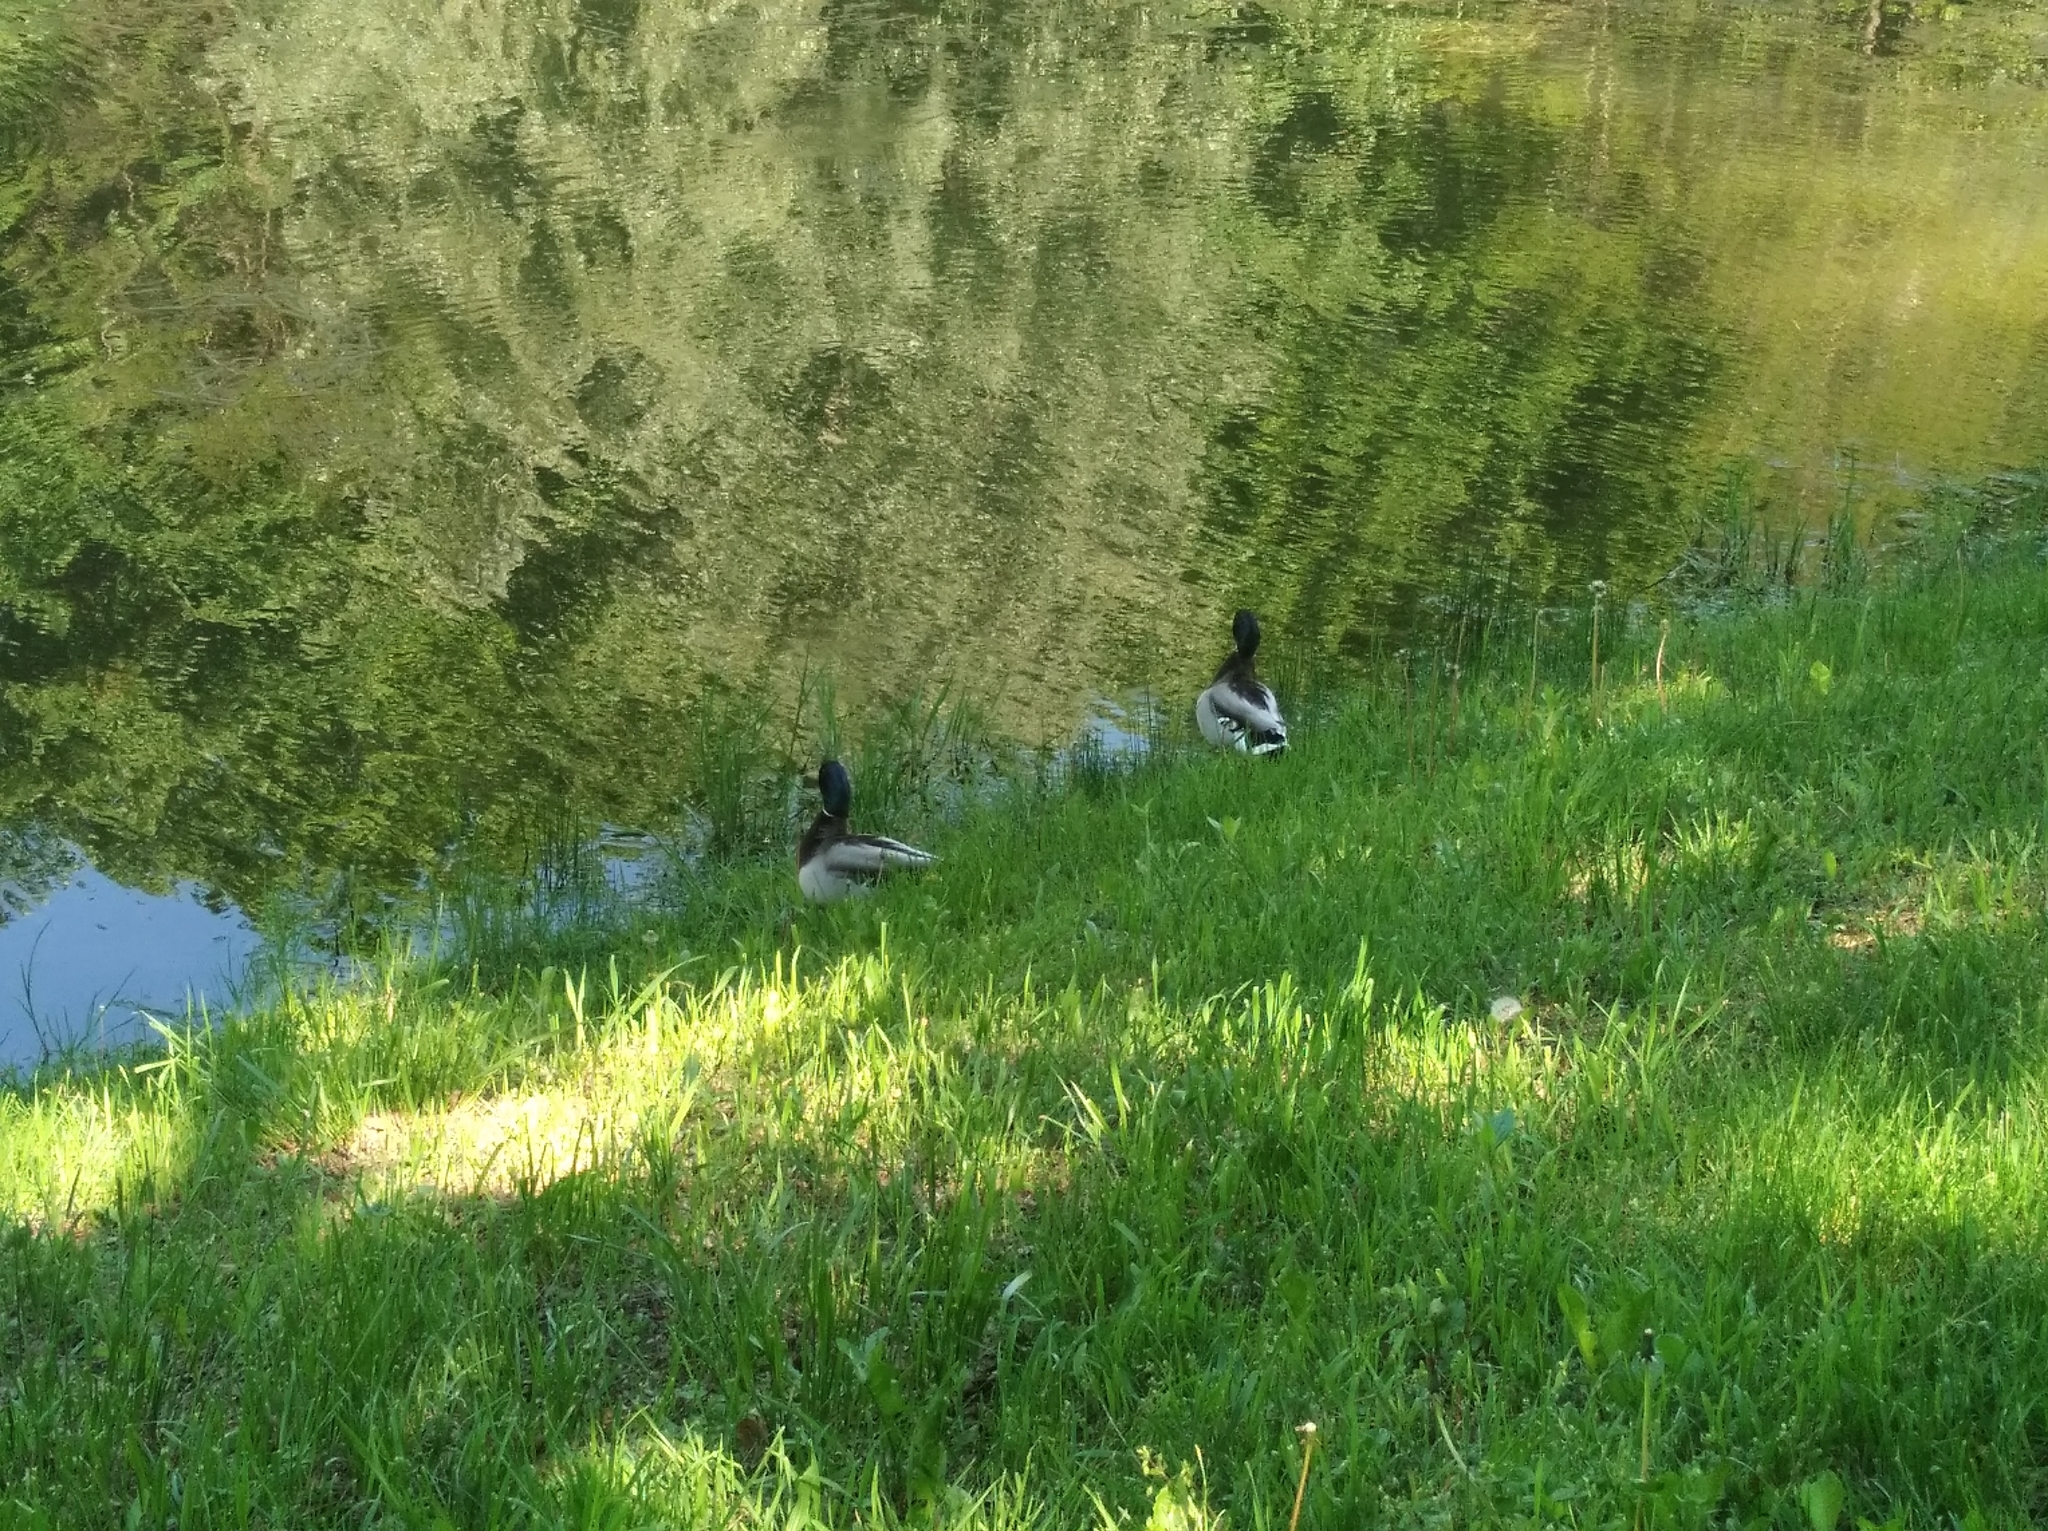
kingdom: Animalia
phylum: Chordata
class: Aves
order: Anseriformes
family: Anatidae
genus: Anas
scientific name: Anas platyrhynchos
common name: Mallard
